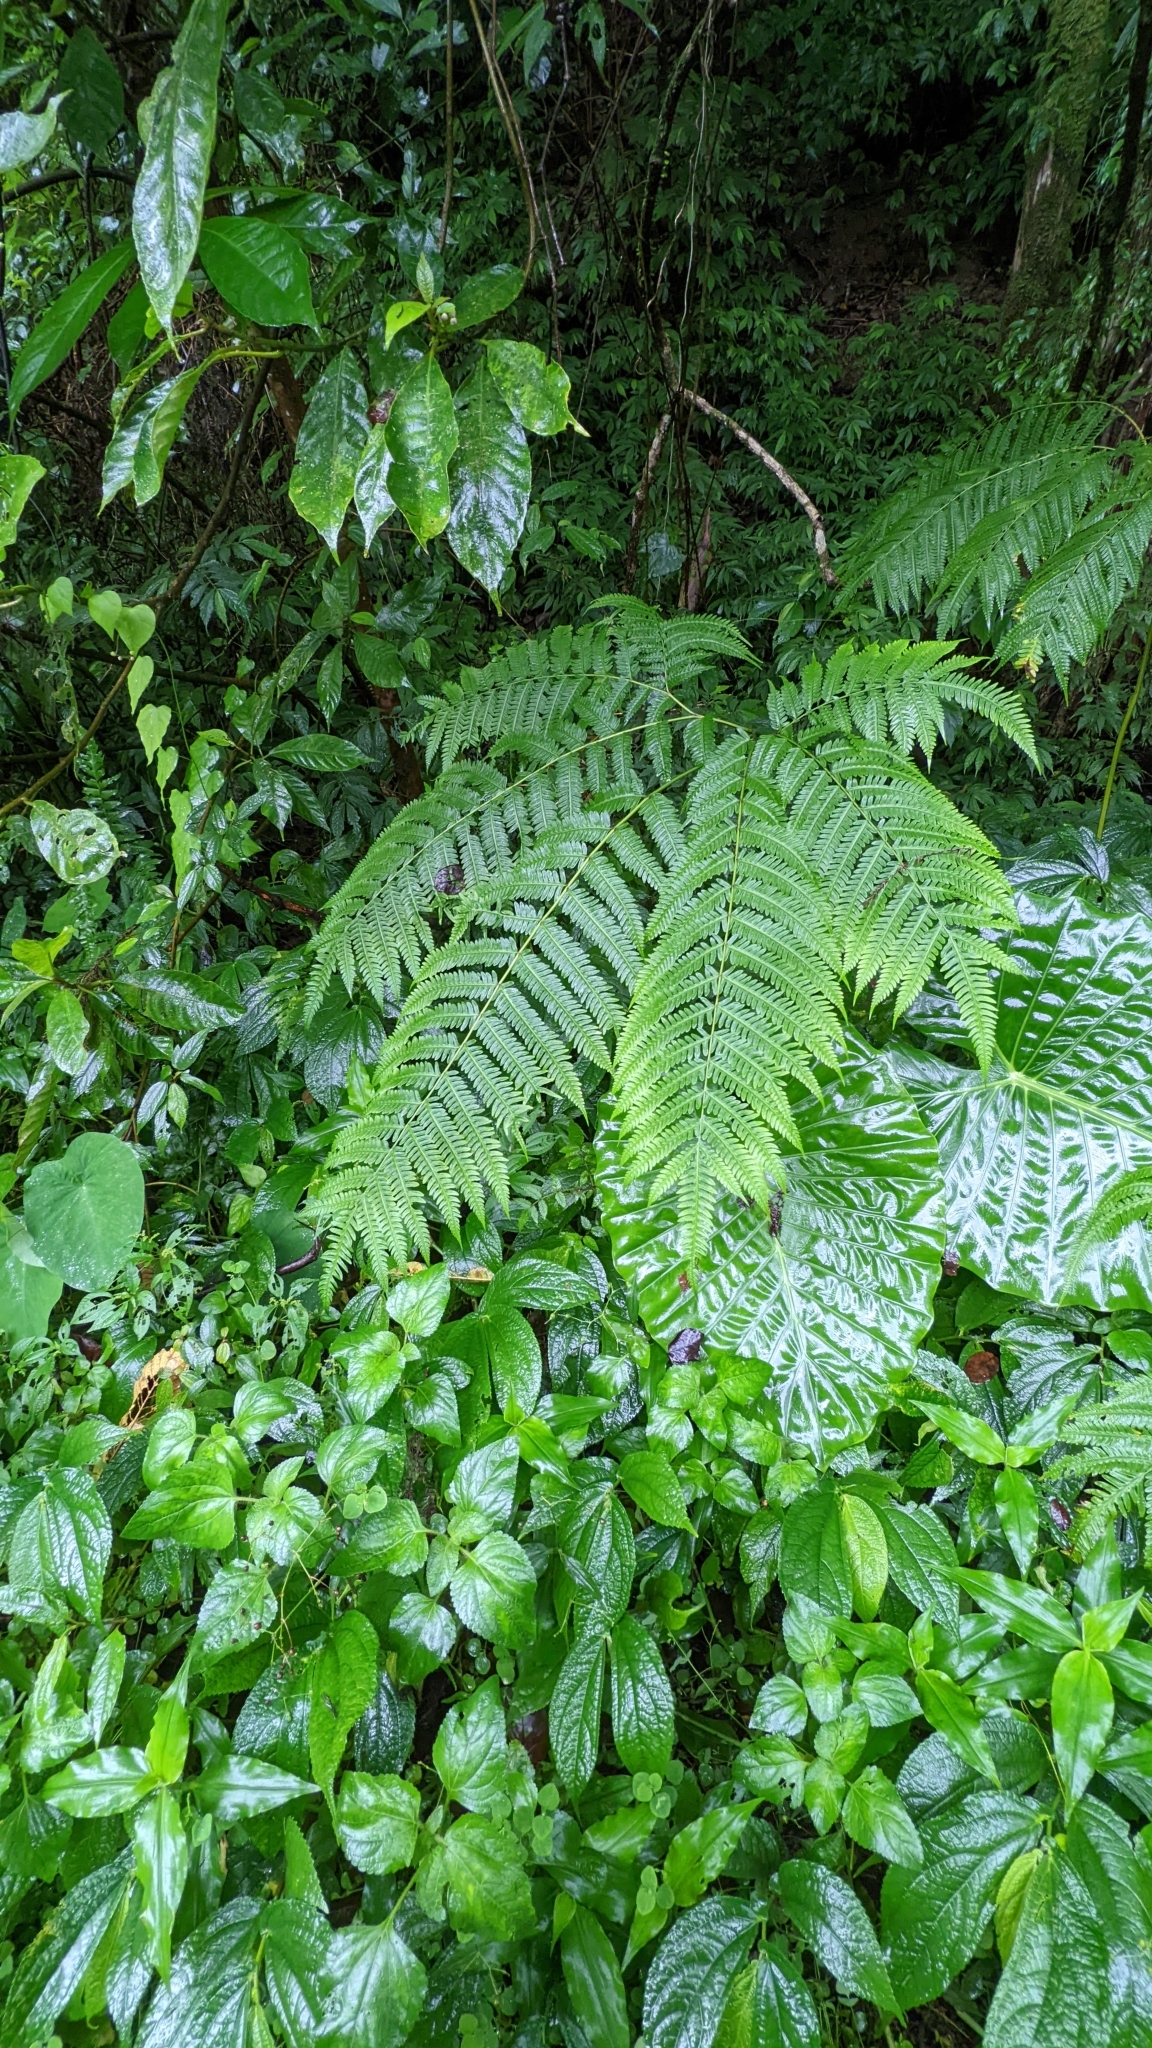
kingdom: Plantae
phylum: Tracheophyta
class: Polypodiopsida
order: Polypodiales
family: Pteridaceae
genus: Pteris
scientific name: Pteris wallichiana
